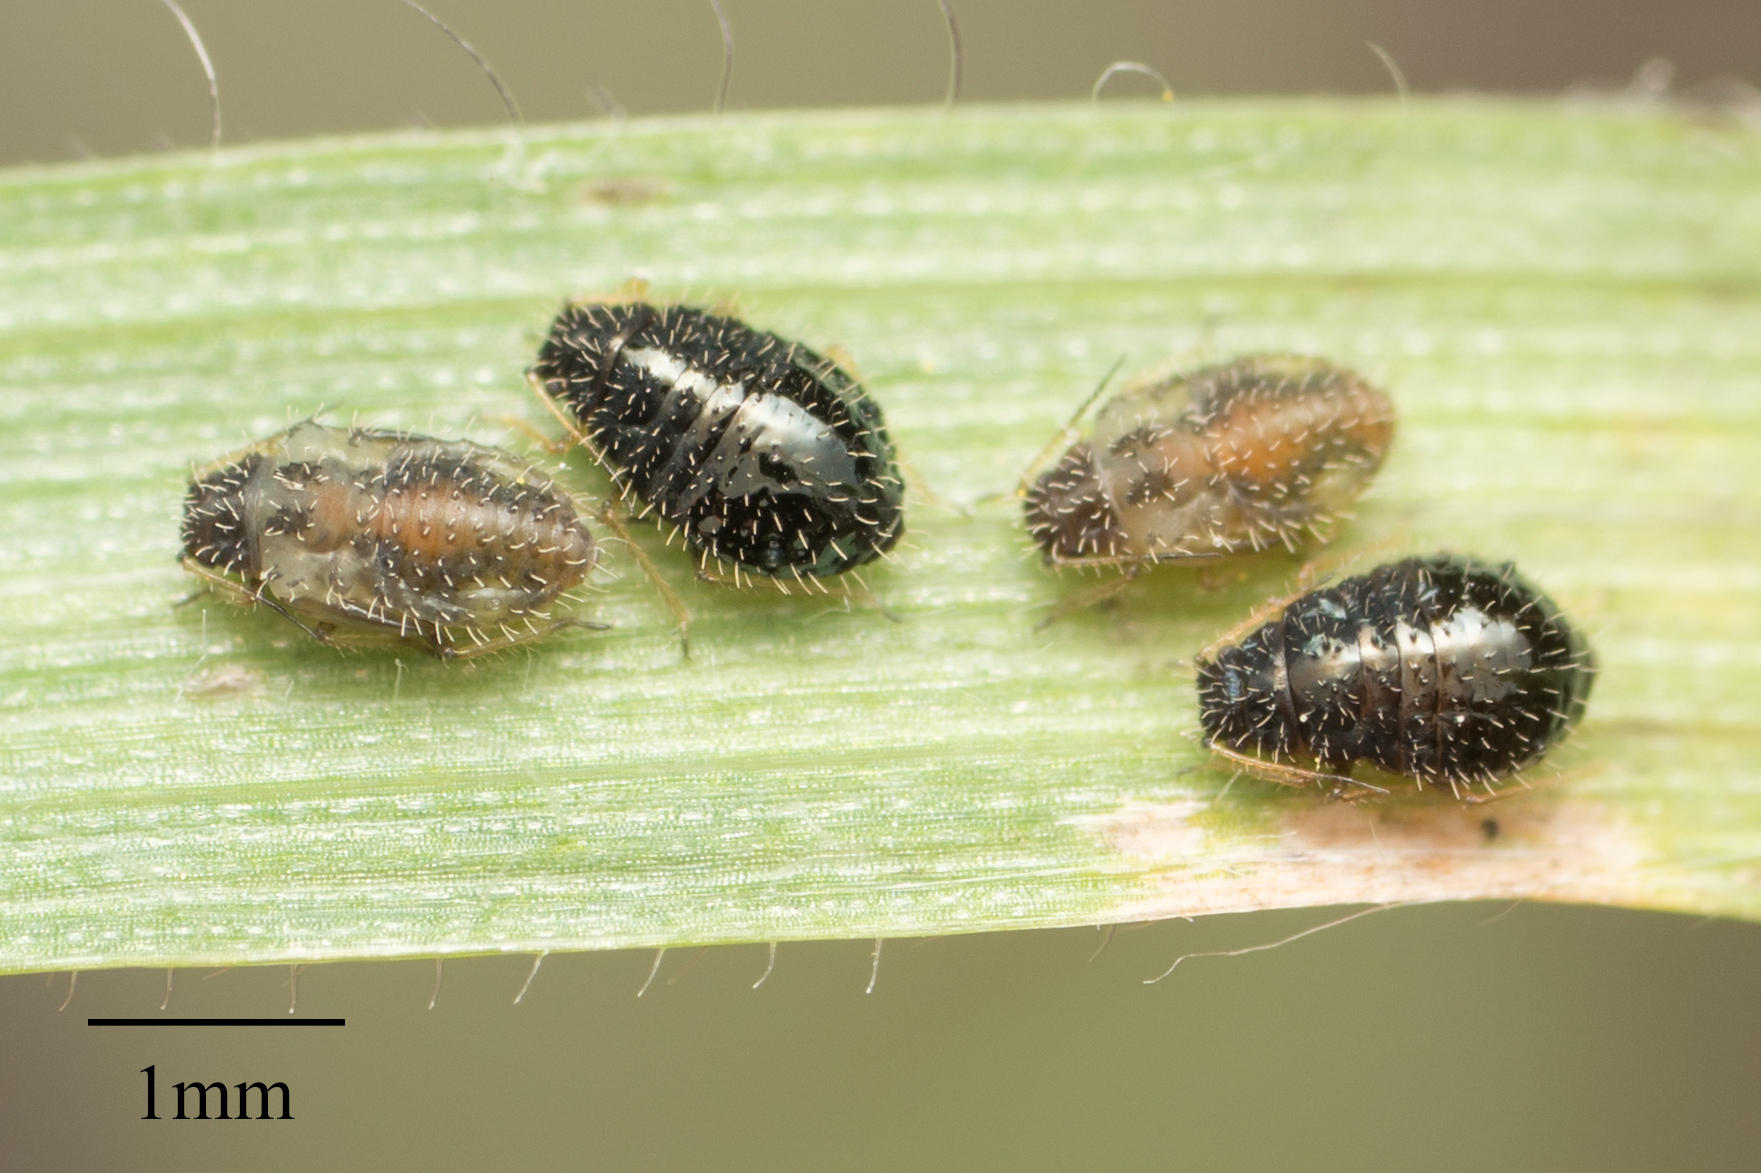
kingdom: Animalia
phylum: Arthropoda
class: Insecta
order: Hemiptera
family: Aphididae
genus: Sipha
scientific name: Sipha maydis
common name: Aphid
